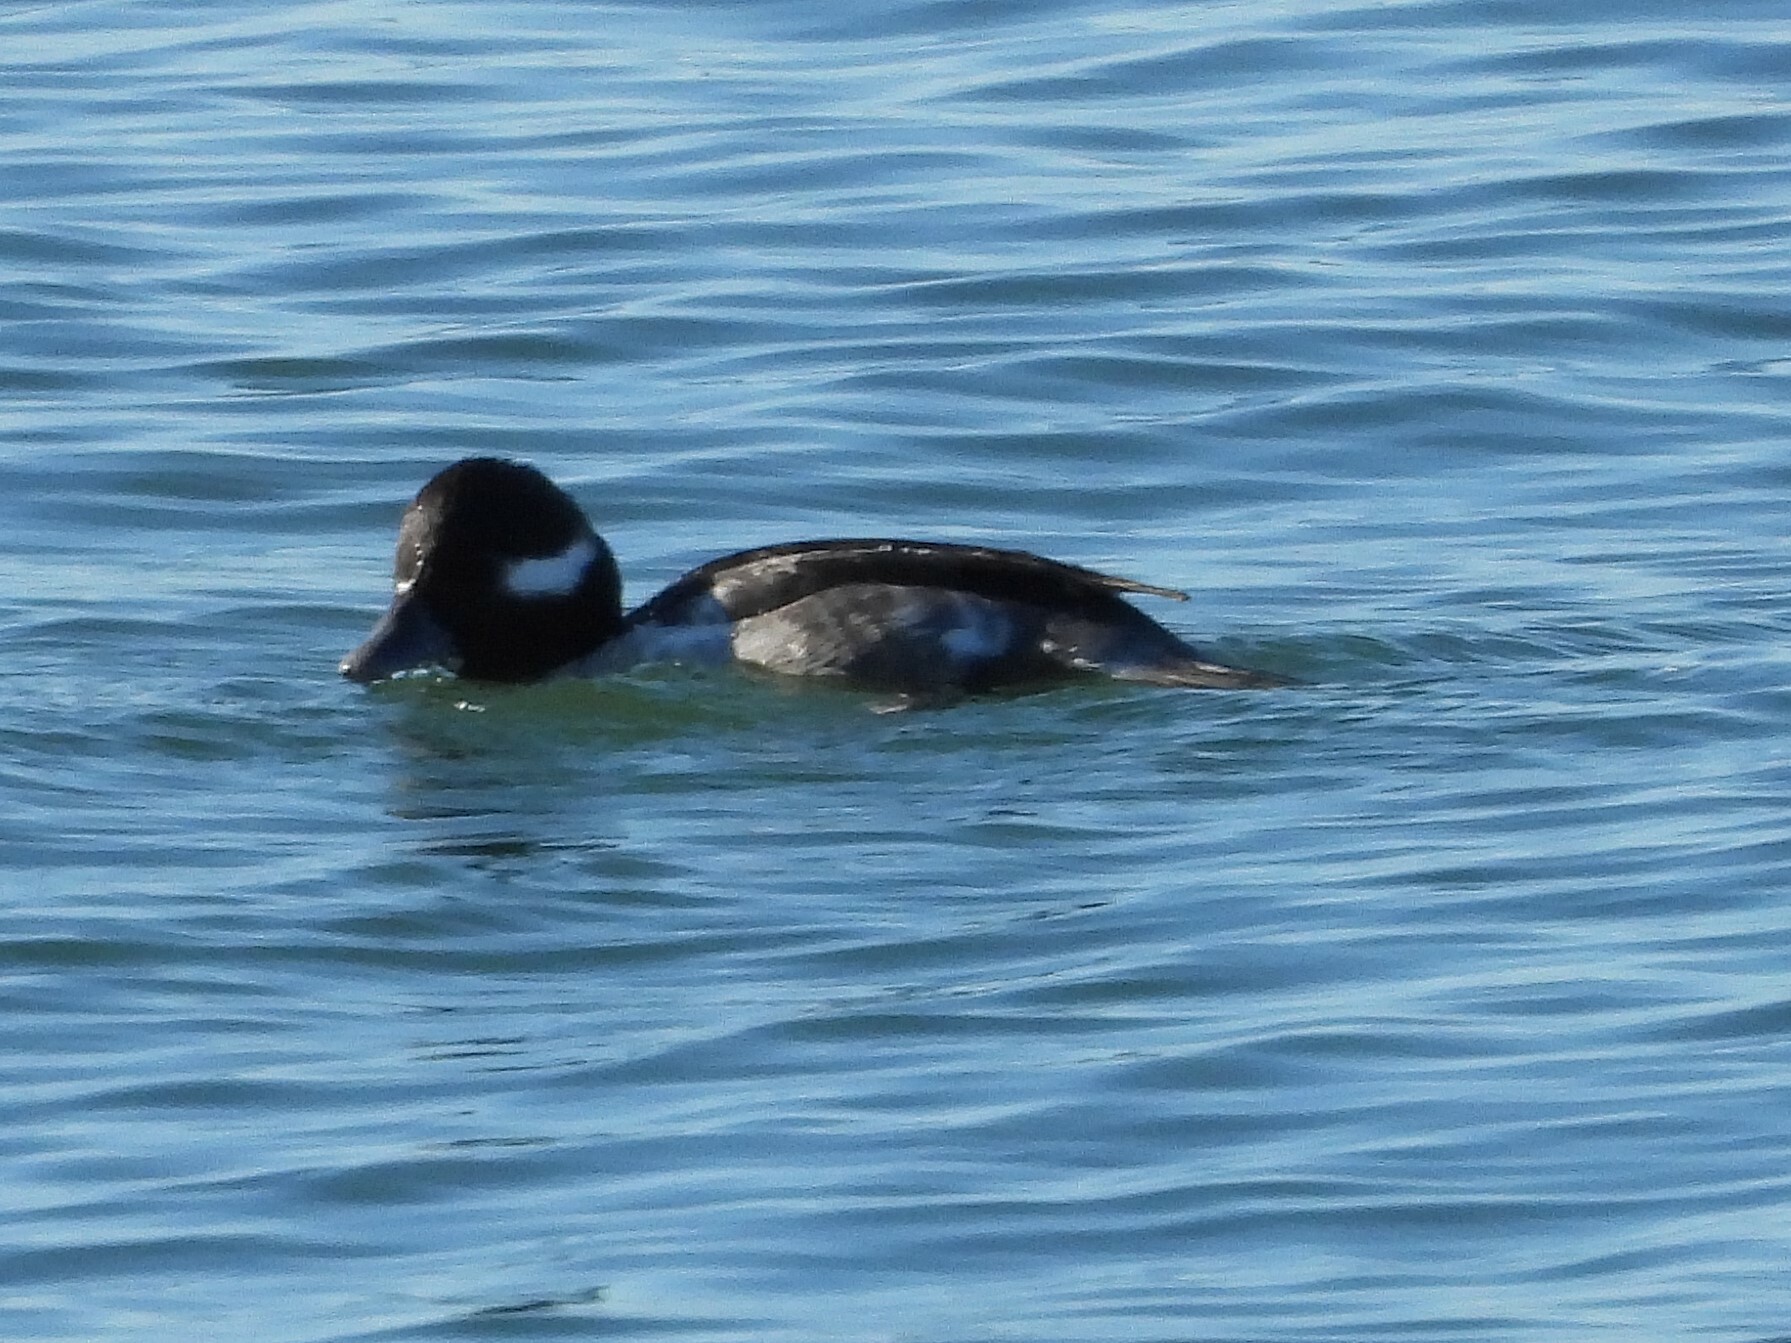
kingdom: Animalia
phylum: Chordata
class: Aves
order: Anseriformes
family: Anatidae
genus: Bucephala
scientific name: Bucephala albeola
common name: Bufflehead
